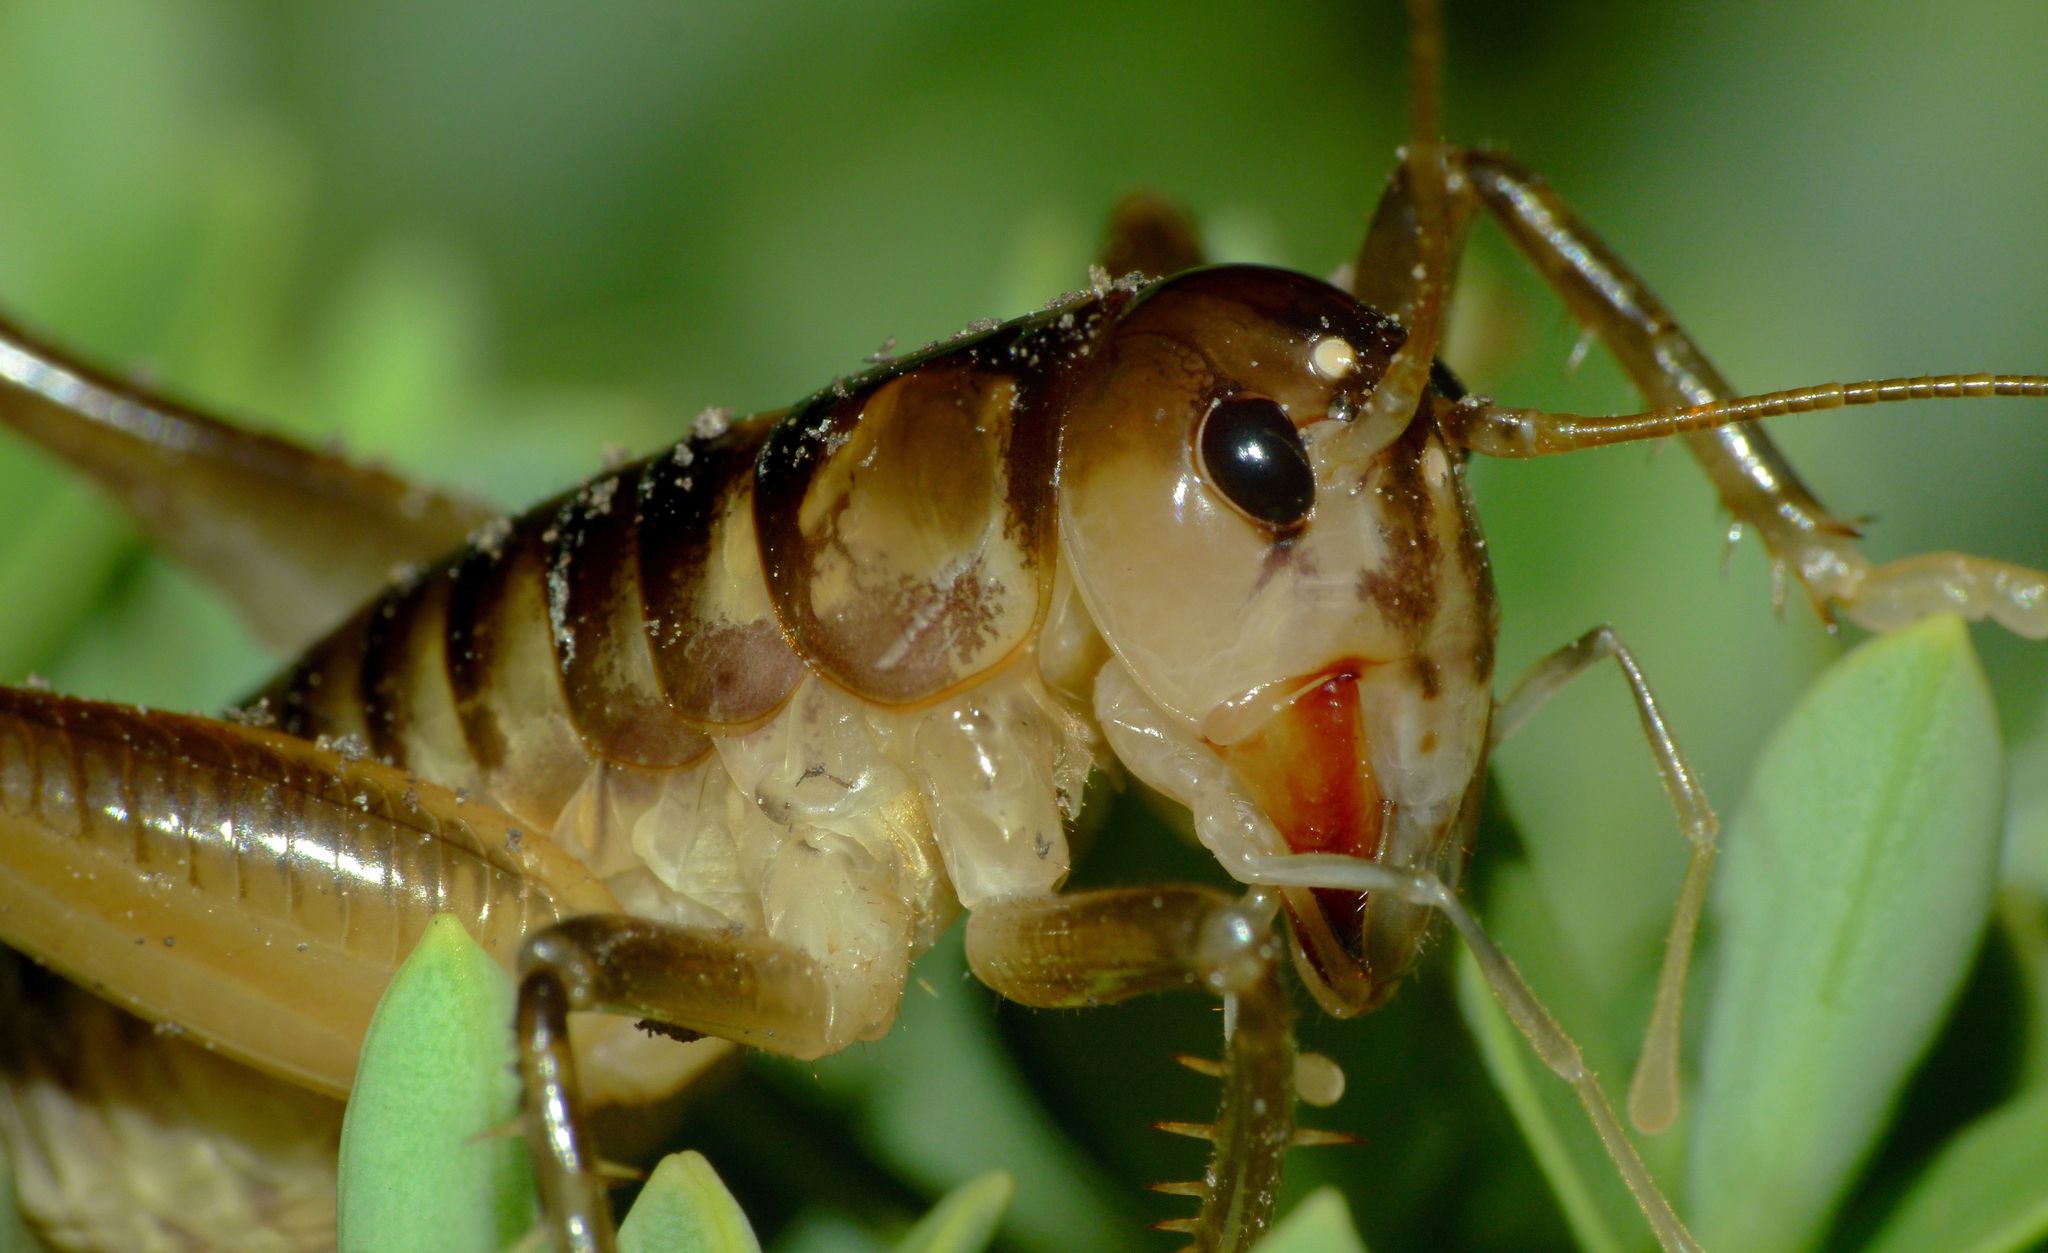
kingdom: Animalia
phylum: Arthropoda
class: Insecta
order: Orthoptera
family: Anostostomatidae
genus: Hemiandrus
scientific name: Hemiandrus maia
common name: Otago ground weta
